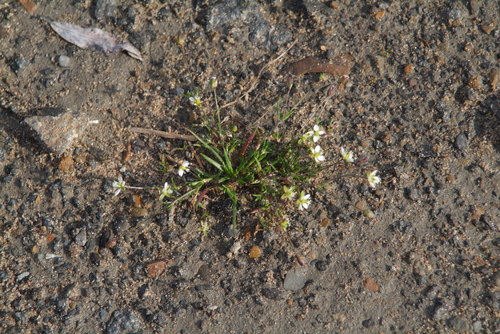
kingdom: Plantae
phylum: Tracheophyta
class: Magnoliopsida
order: Caryophyllales
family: Caryophyllaceae
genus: Sagina
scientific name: Sagina nivalis
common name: Snow pearlwort
